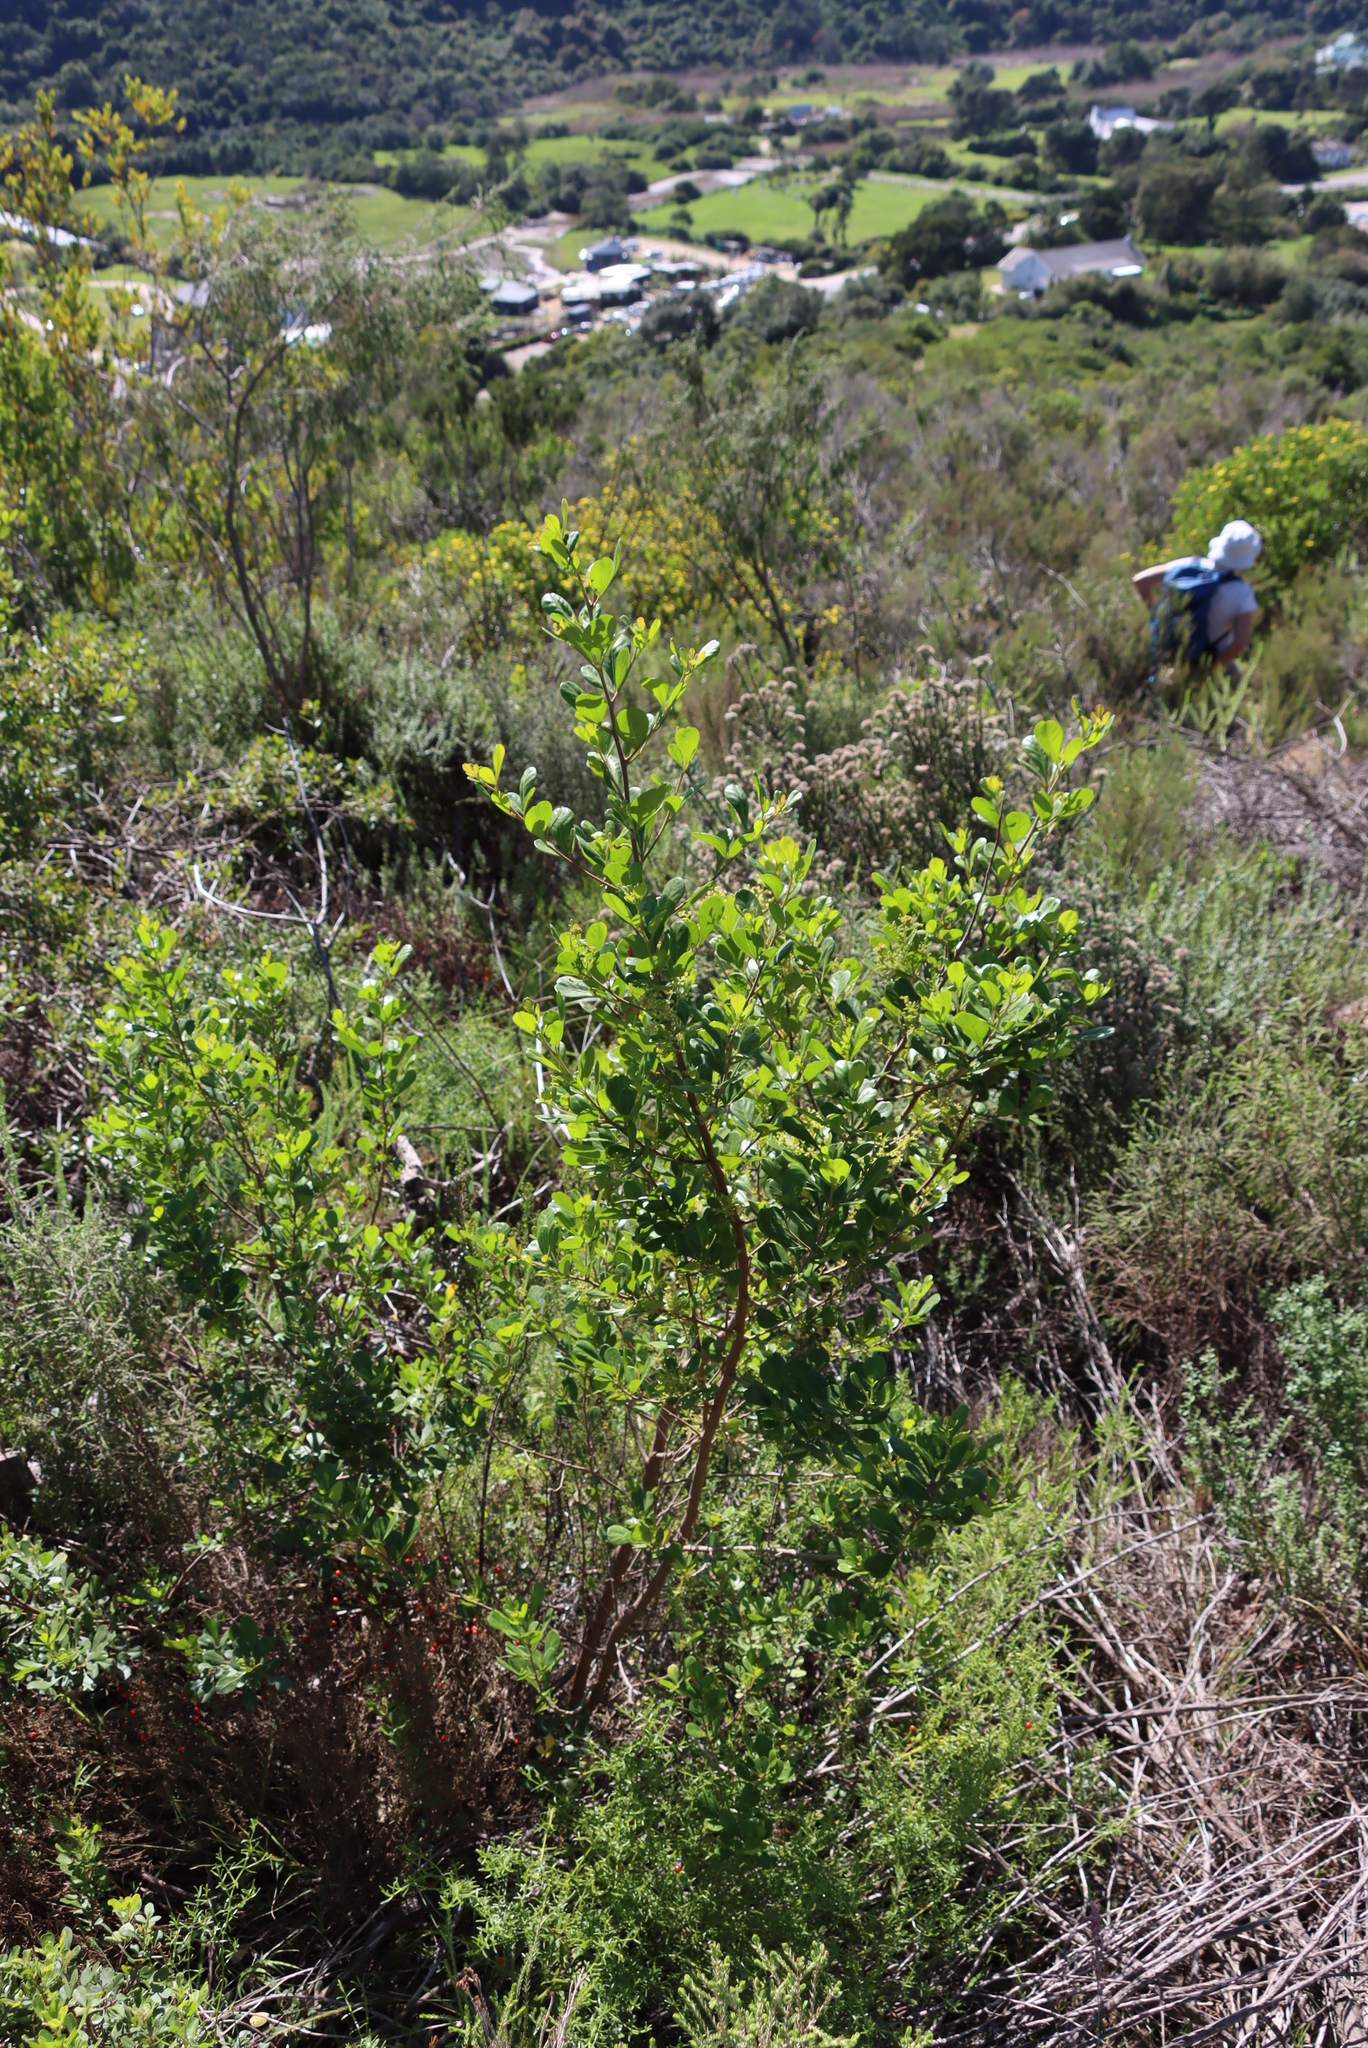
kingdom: Plantae
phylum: Tracheophyta
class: Magnoliopsida
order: Sapindales
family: Anacardiaceae
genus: Searsia
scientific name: Searsia lucida
